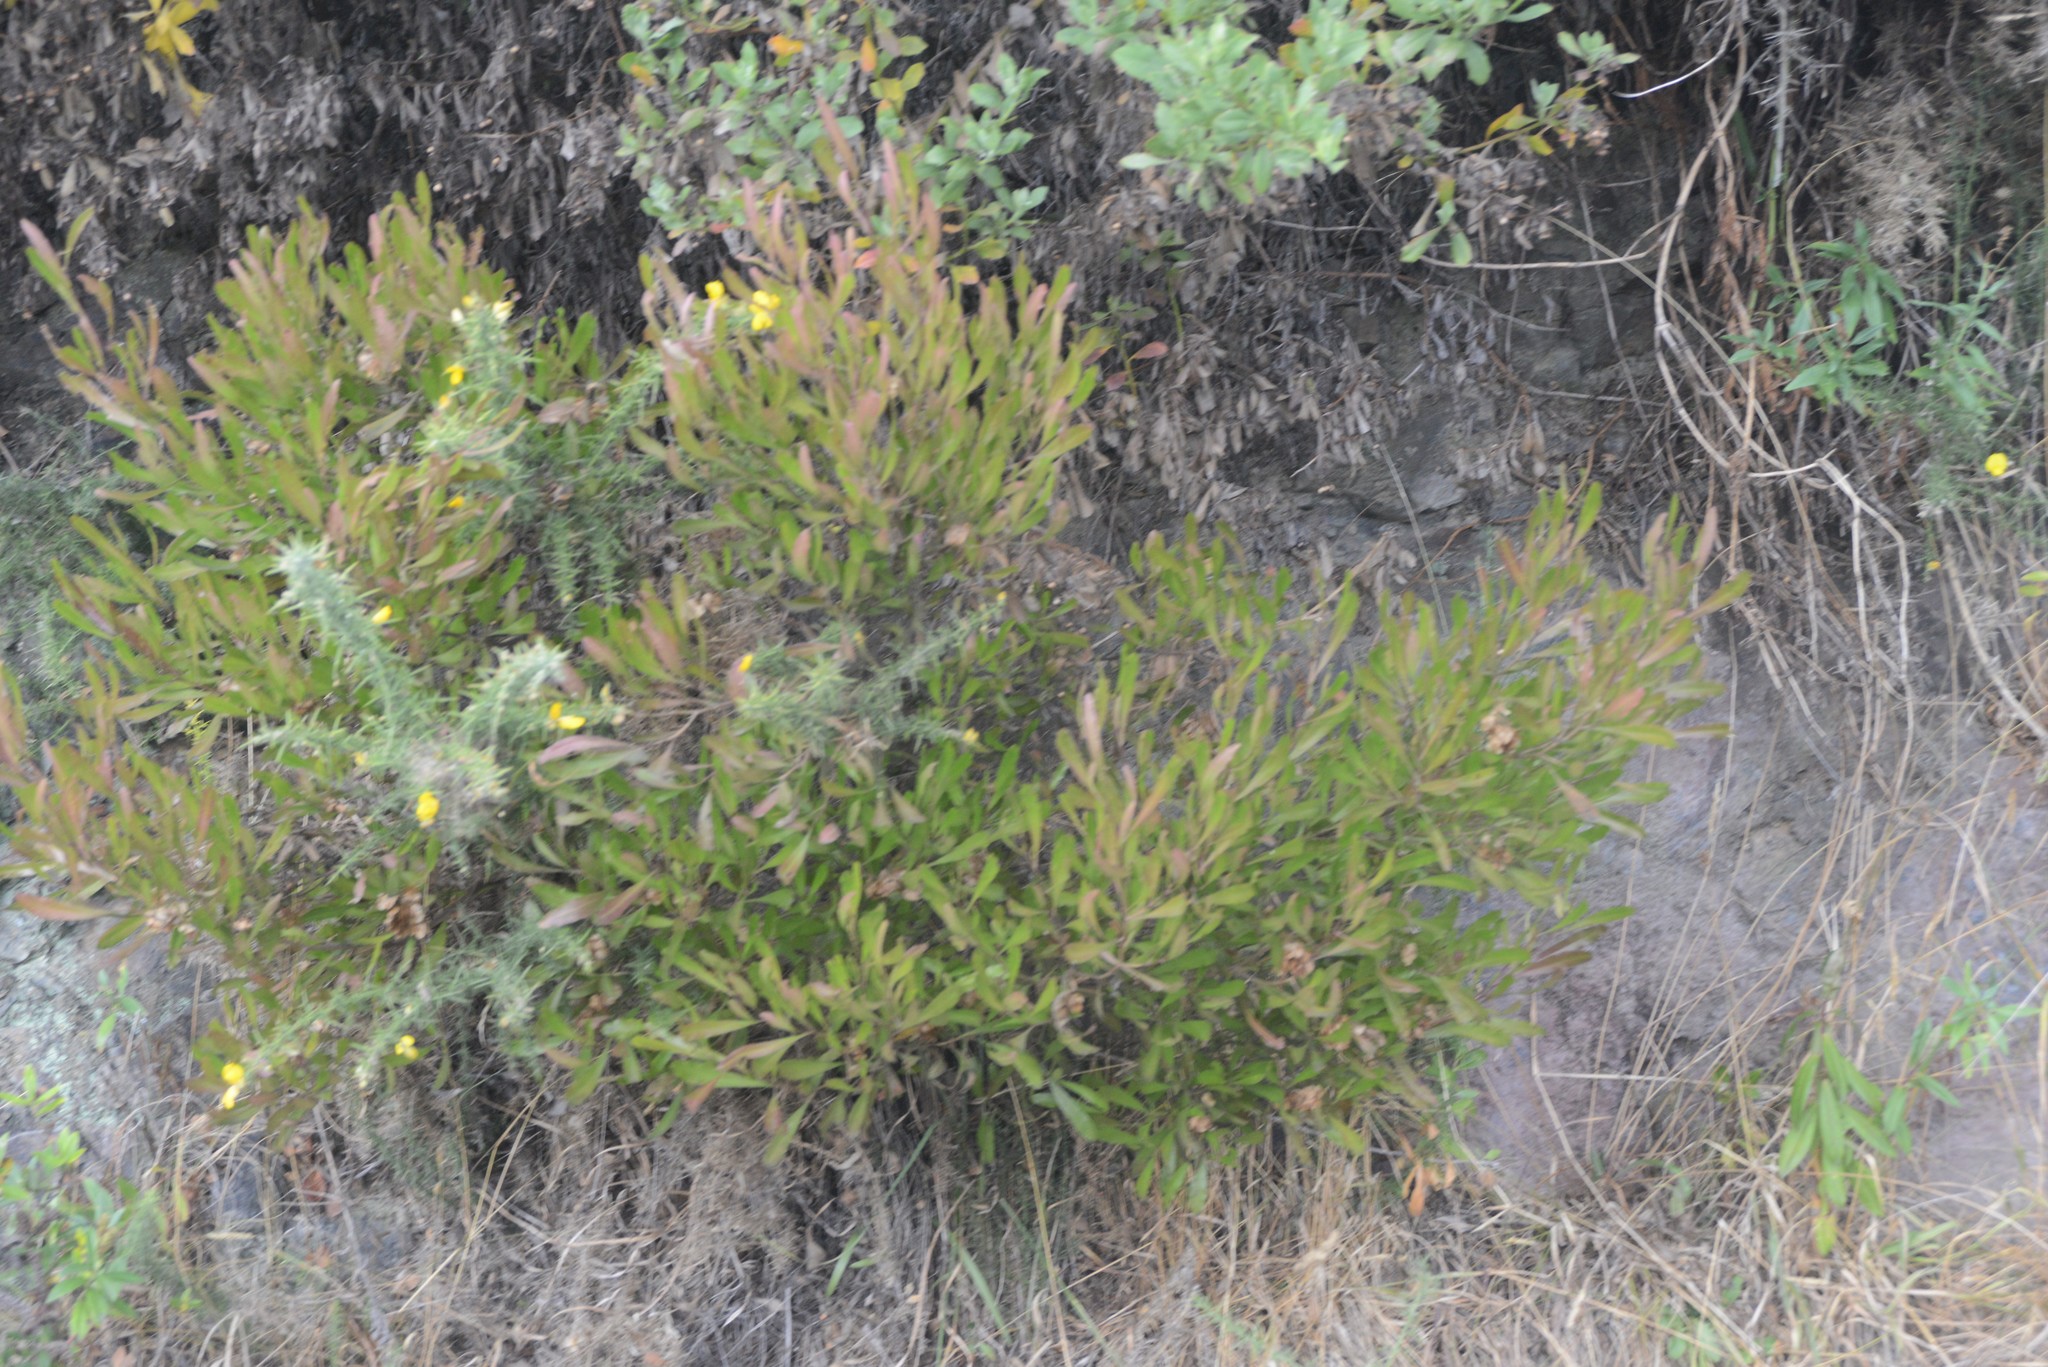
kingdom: Plantae
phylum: Tracheophyta
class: Magnoliopsida
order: Sapindales
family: Sapindaceae
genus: Dodonaea
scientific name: Dodonaea viscosa
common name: Hopbush
